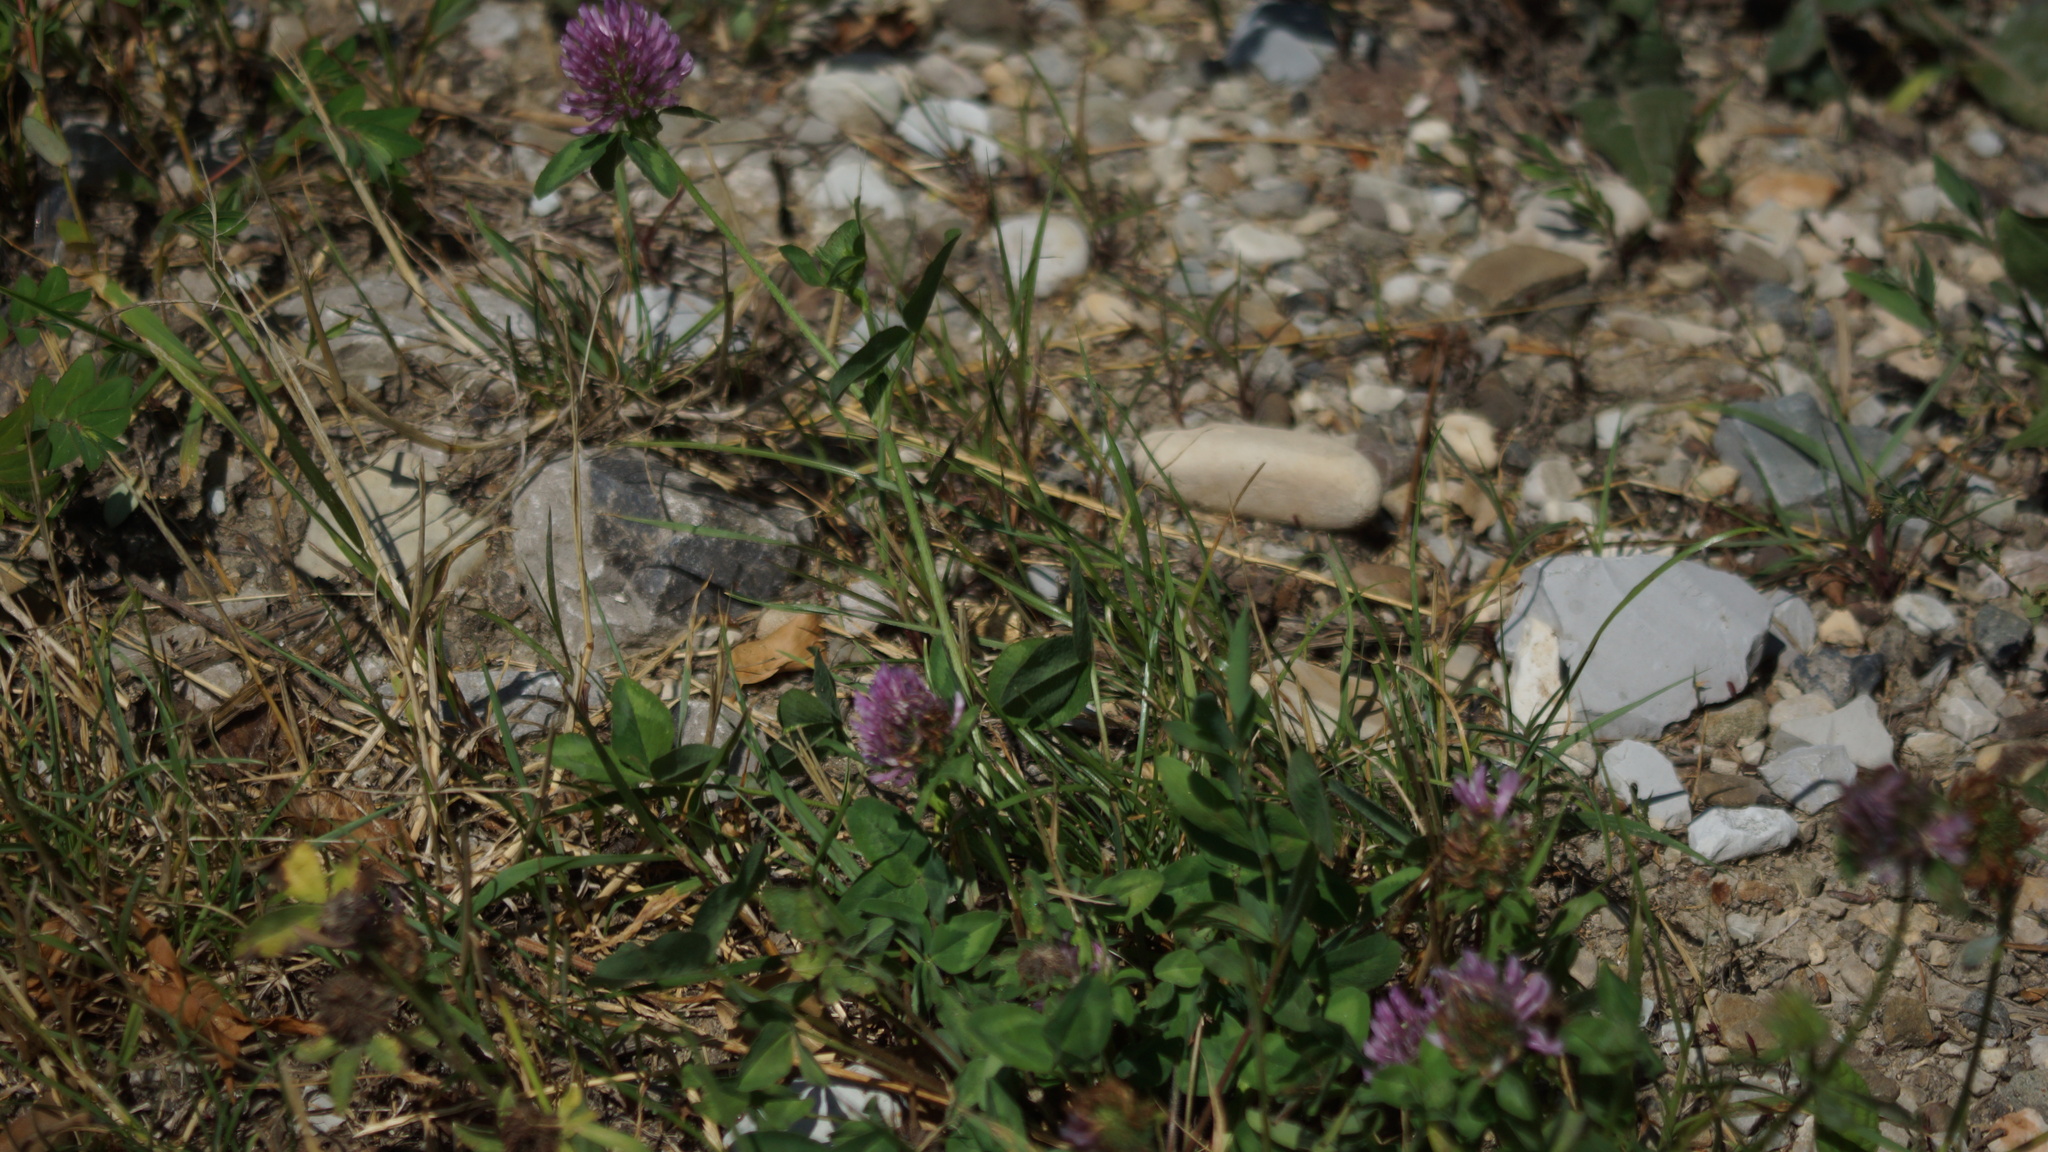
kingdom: Plantae
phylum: Tracheophyta
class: Magnoliopsida
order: Fabales
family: Fabaceae
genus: Trifolium
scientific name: Trifolium pratense
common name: Red clover
